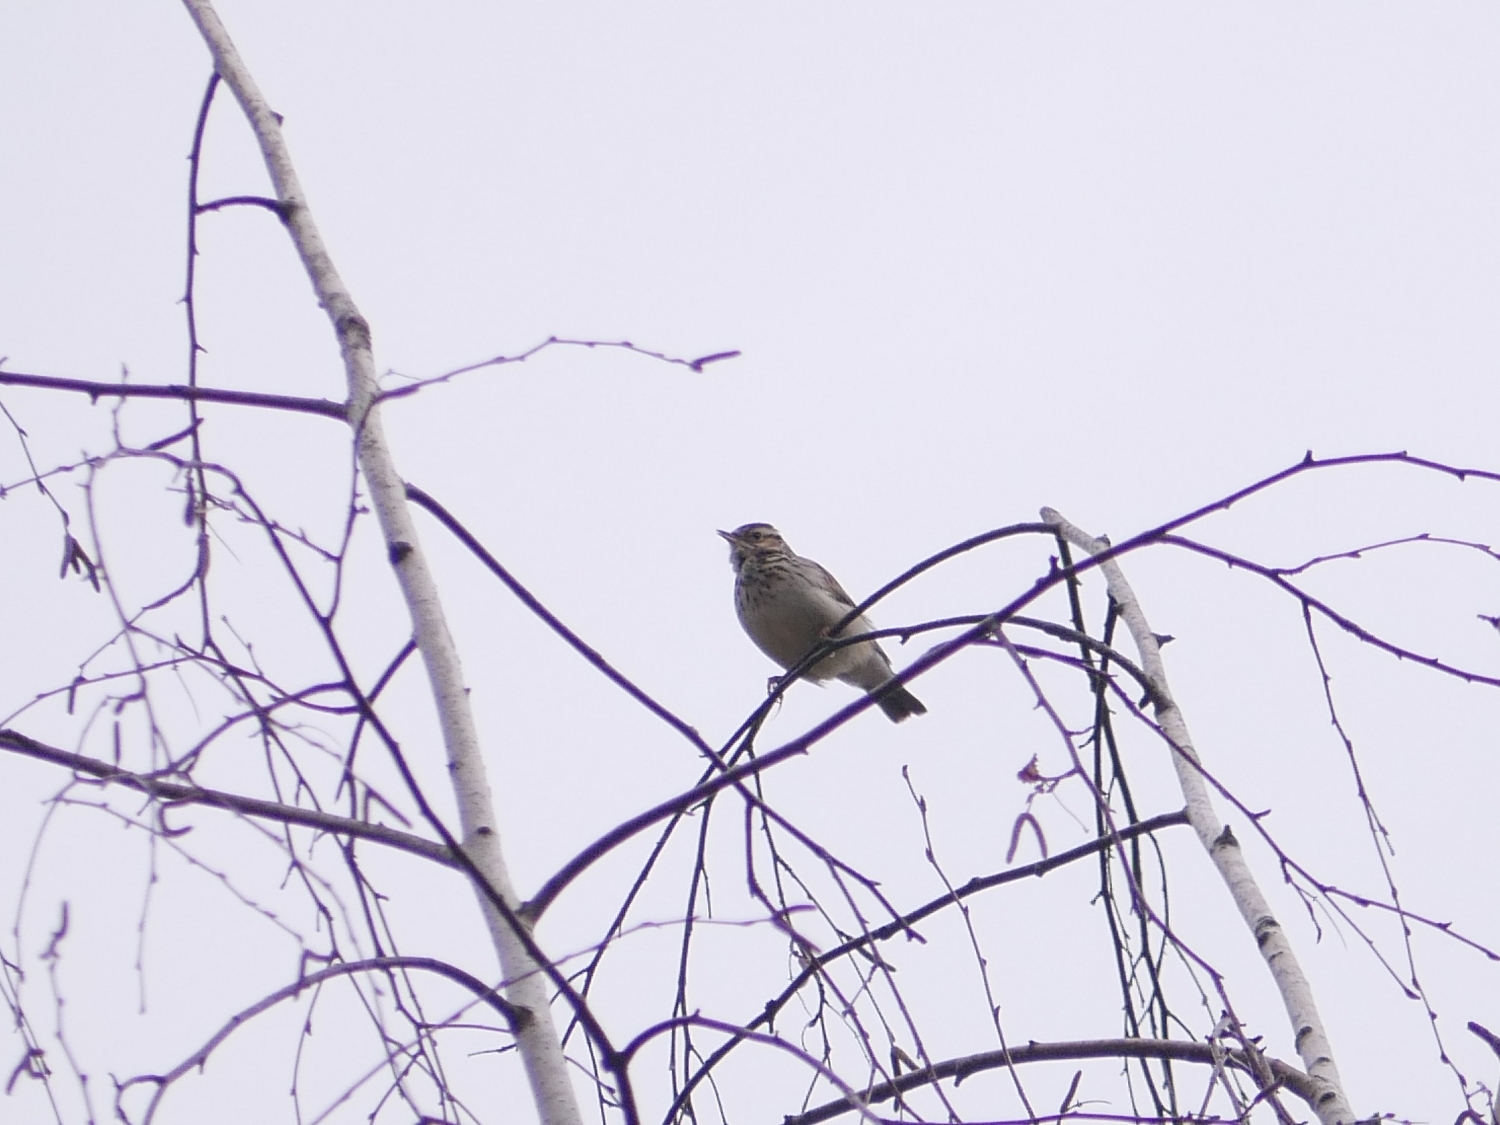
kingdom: Animalia
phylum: Chordata
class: Aves
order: Passeriformes
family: Alaudidae
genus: Lullula
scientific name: Lullula arborea
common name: Woodlark
